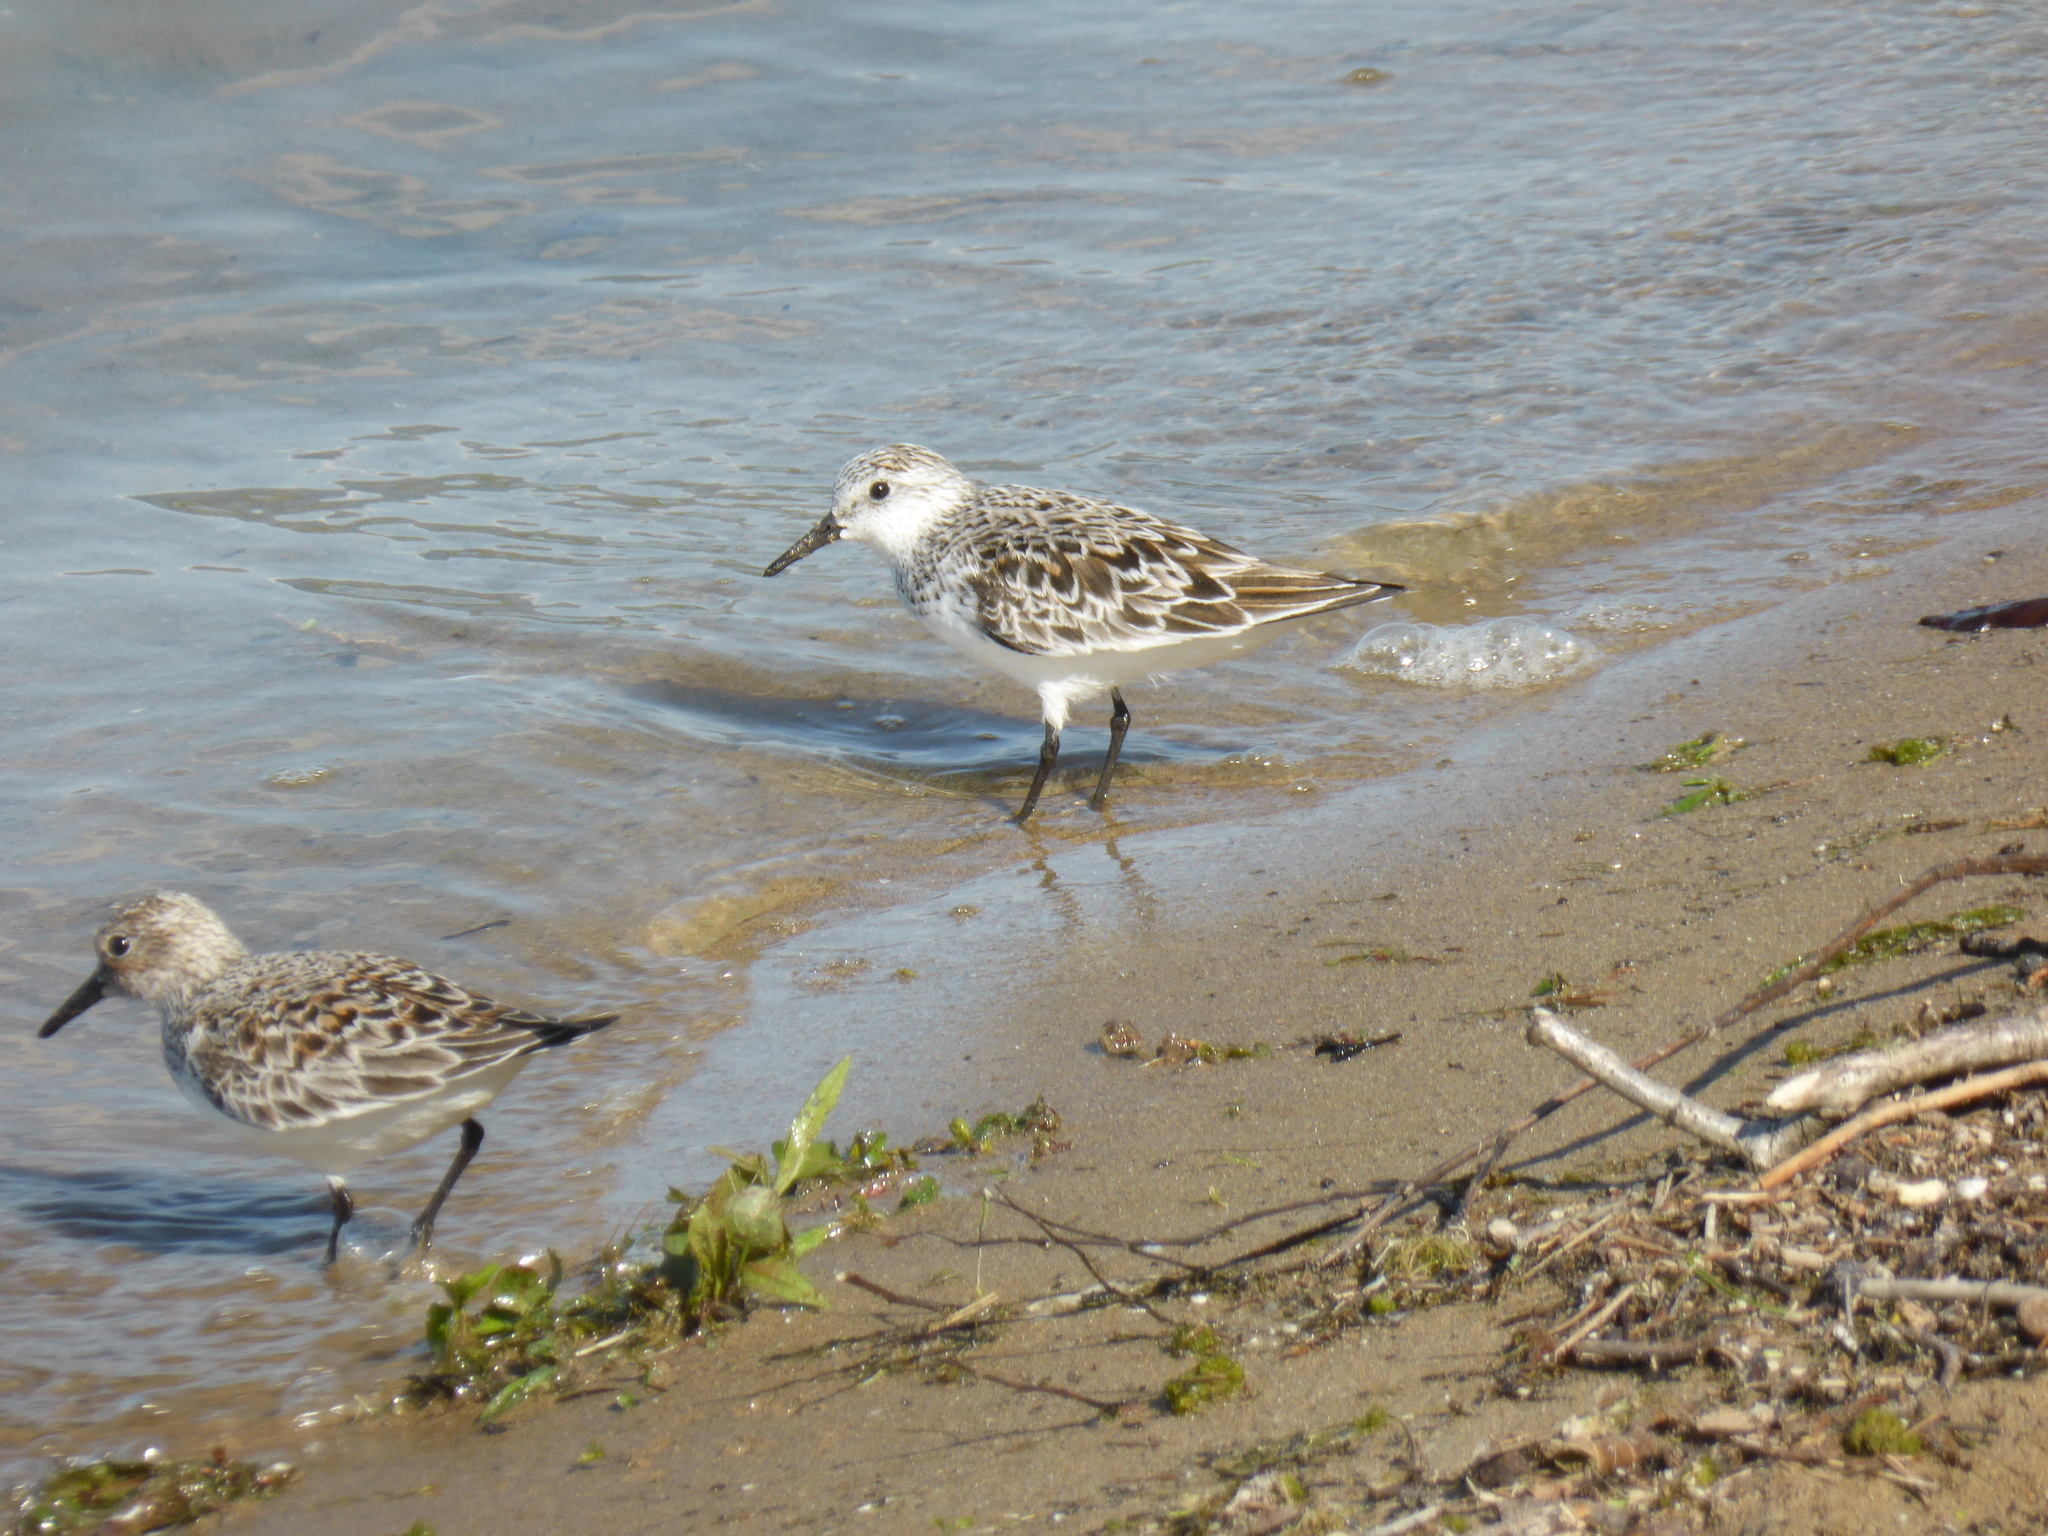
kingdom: Animalia
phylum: Chordata
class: Aves
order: Charadriiformes
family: Scolopacidae
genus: Calidris
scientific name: Calidris alba
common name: Sanderling
